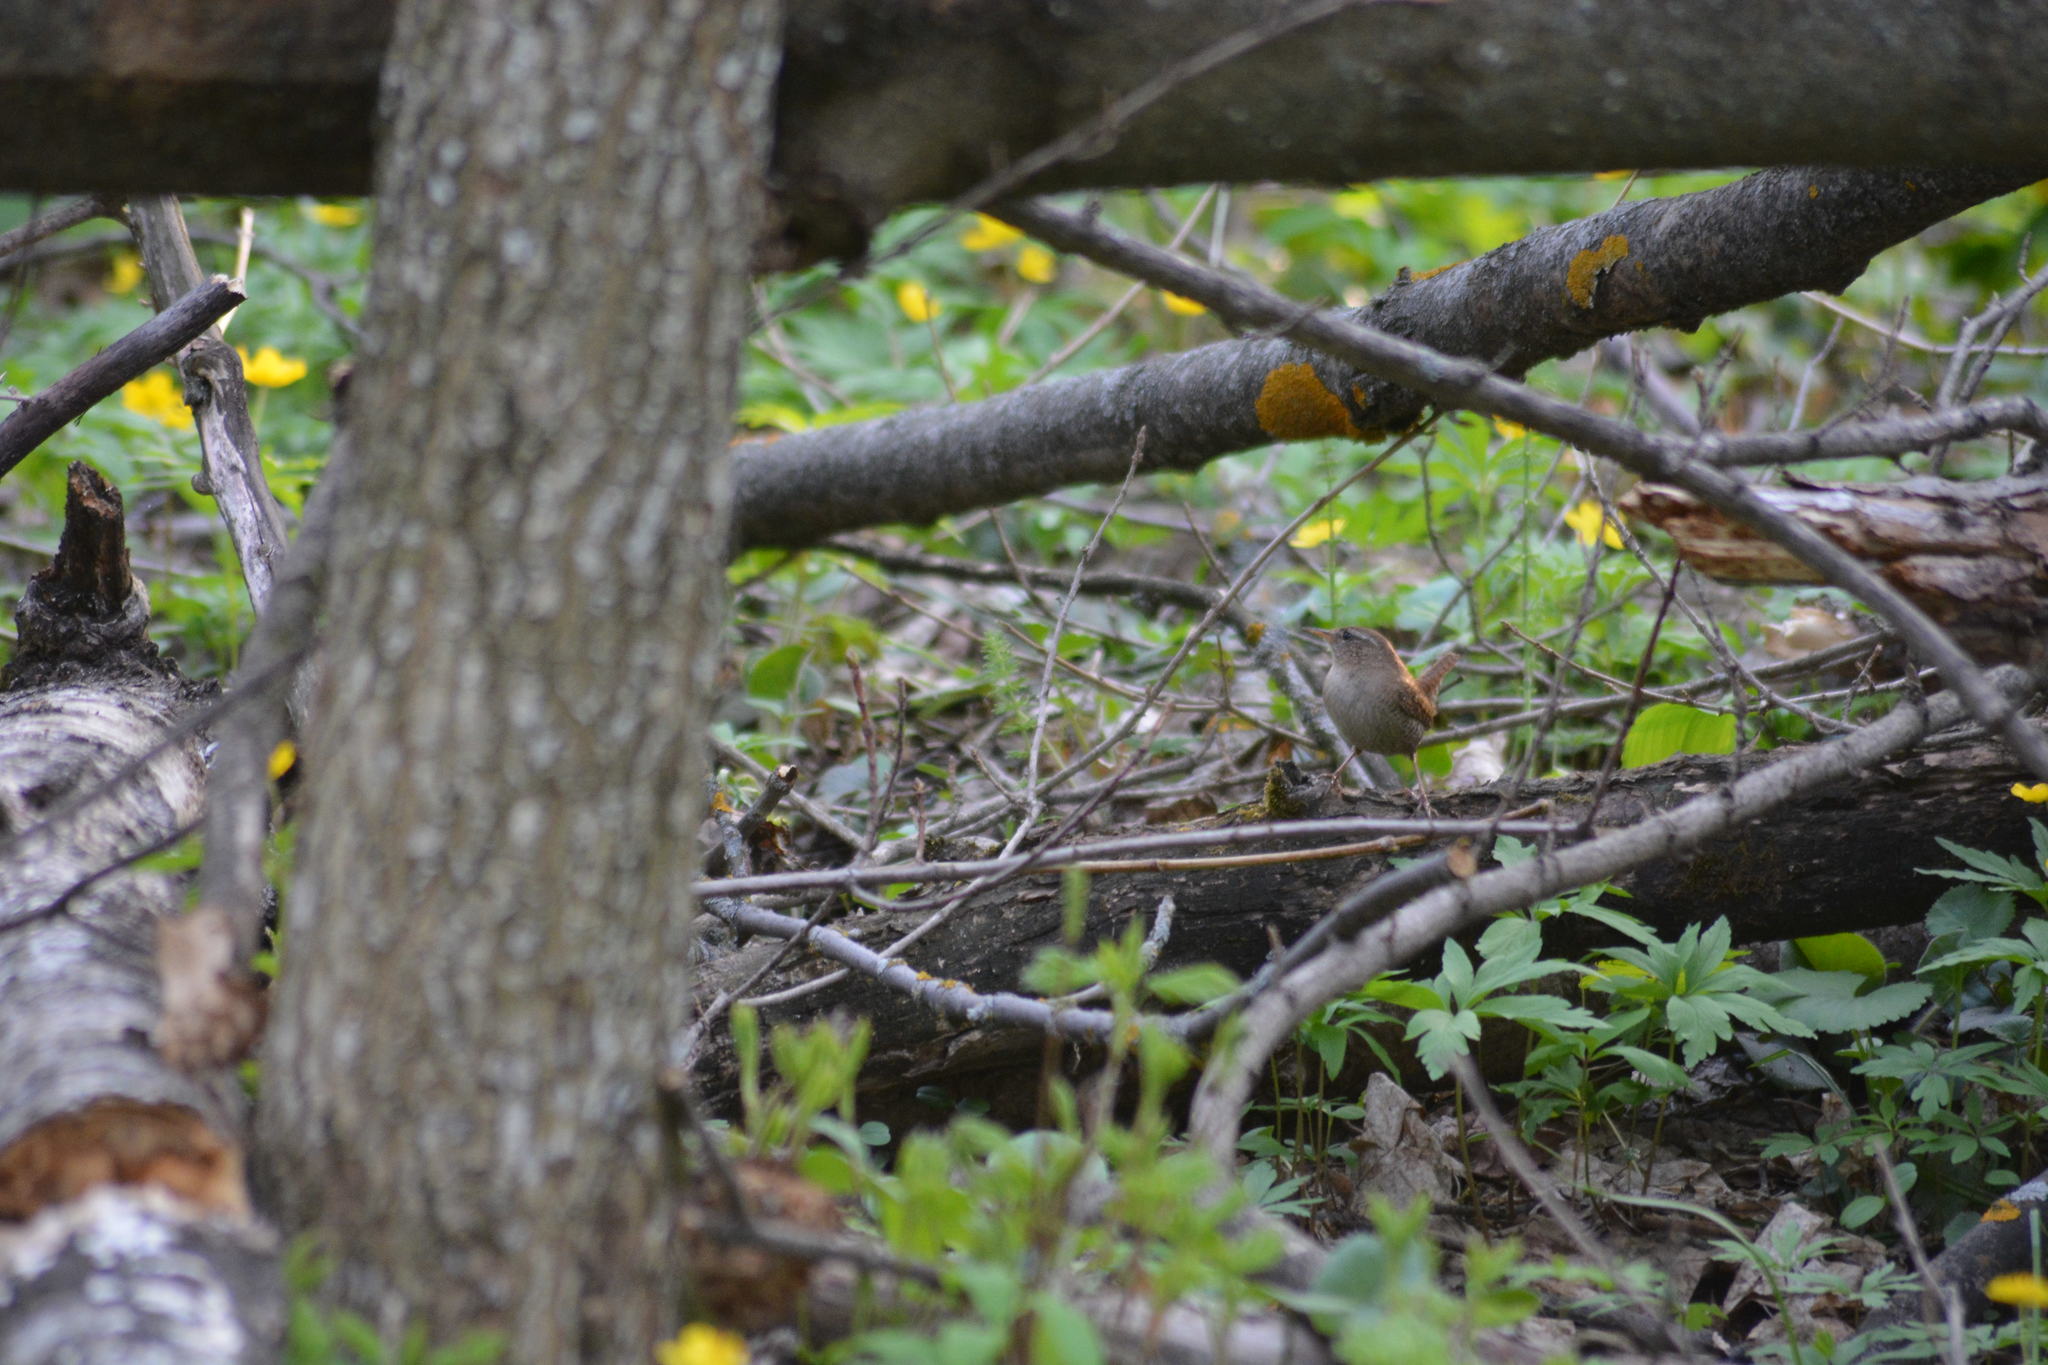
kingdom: Animalia
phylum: Chordata
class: Aves
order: Passeriformes
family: Troglodytidae
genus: Troglodytes
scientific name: Troglodytes troglodytes
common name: Eurasian wren
